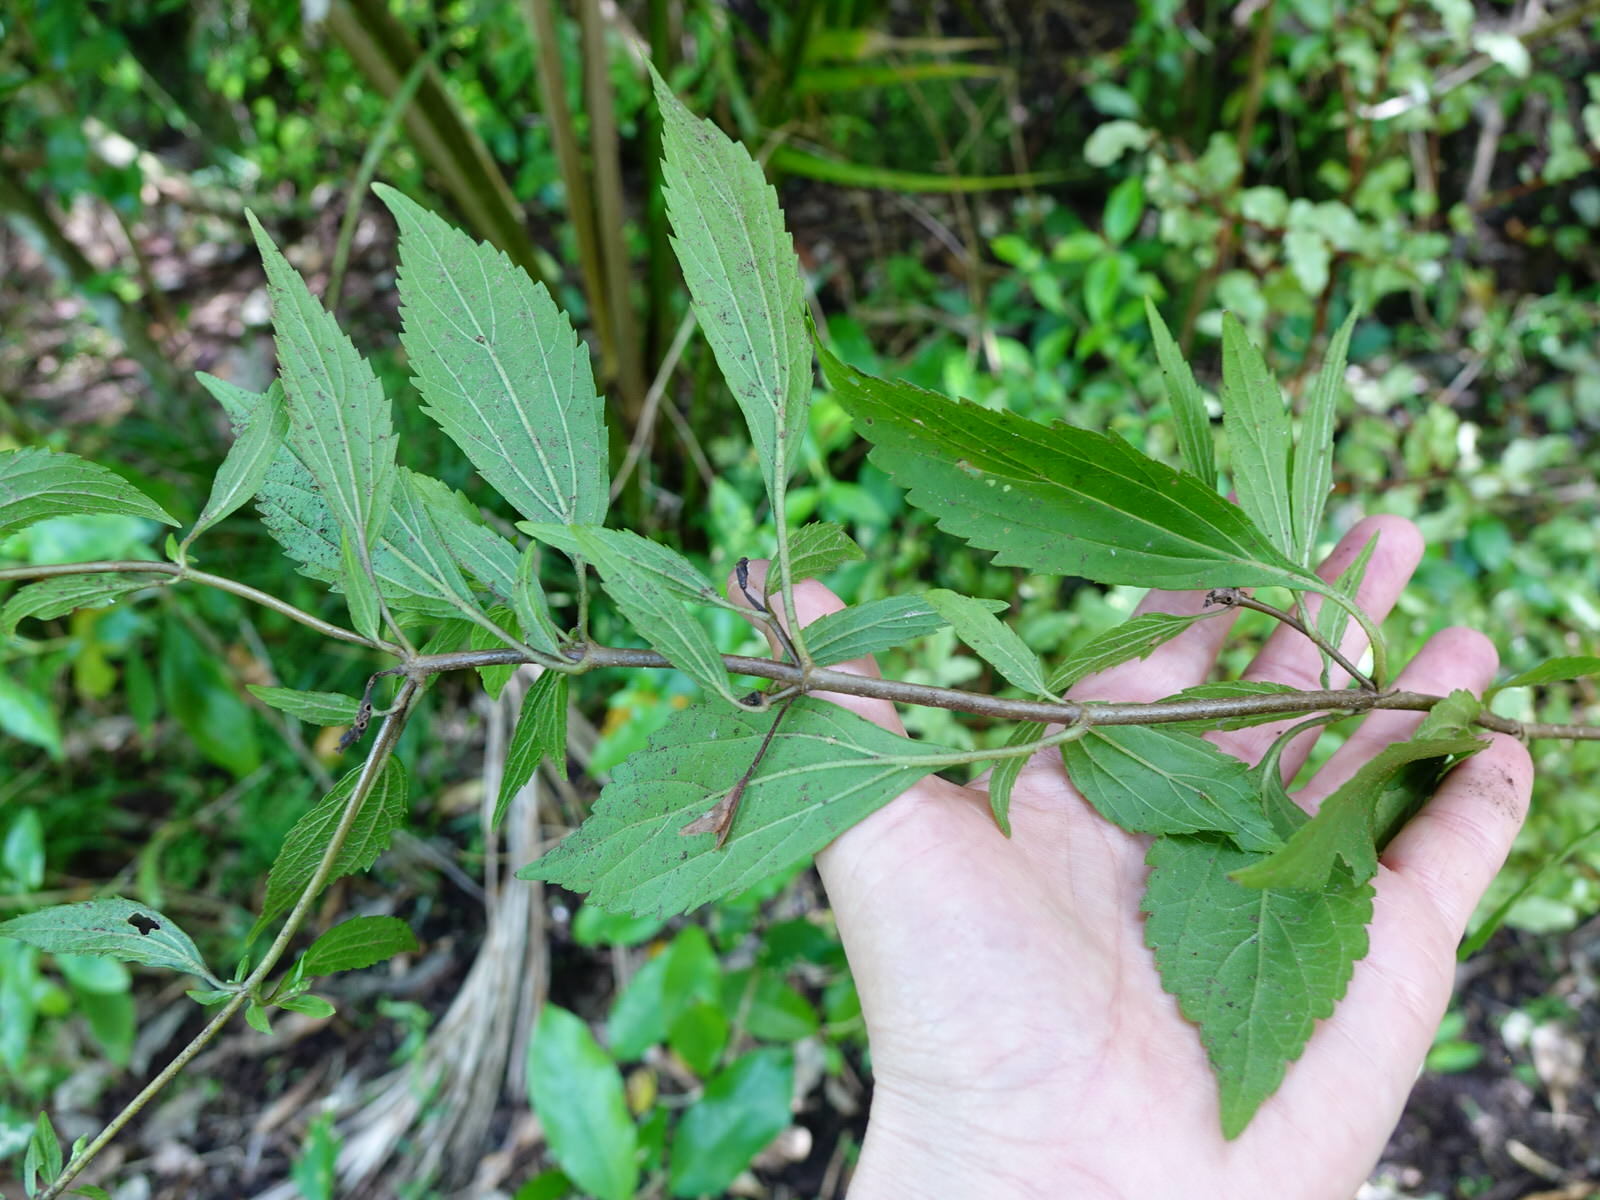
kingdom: Plantae
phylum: Tracheophyta
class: Magnoliopsida
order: Asterales
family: Asteraceae
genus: Ageratina
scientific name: Ageratina riparia
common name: Creeping croftonweed
